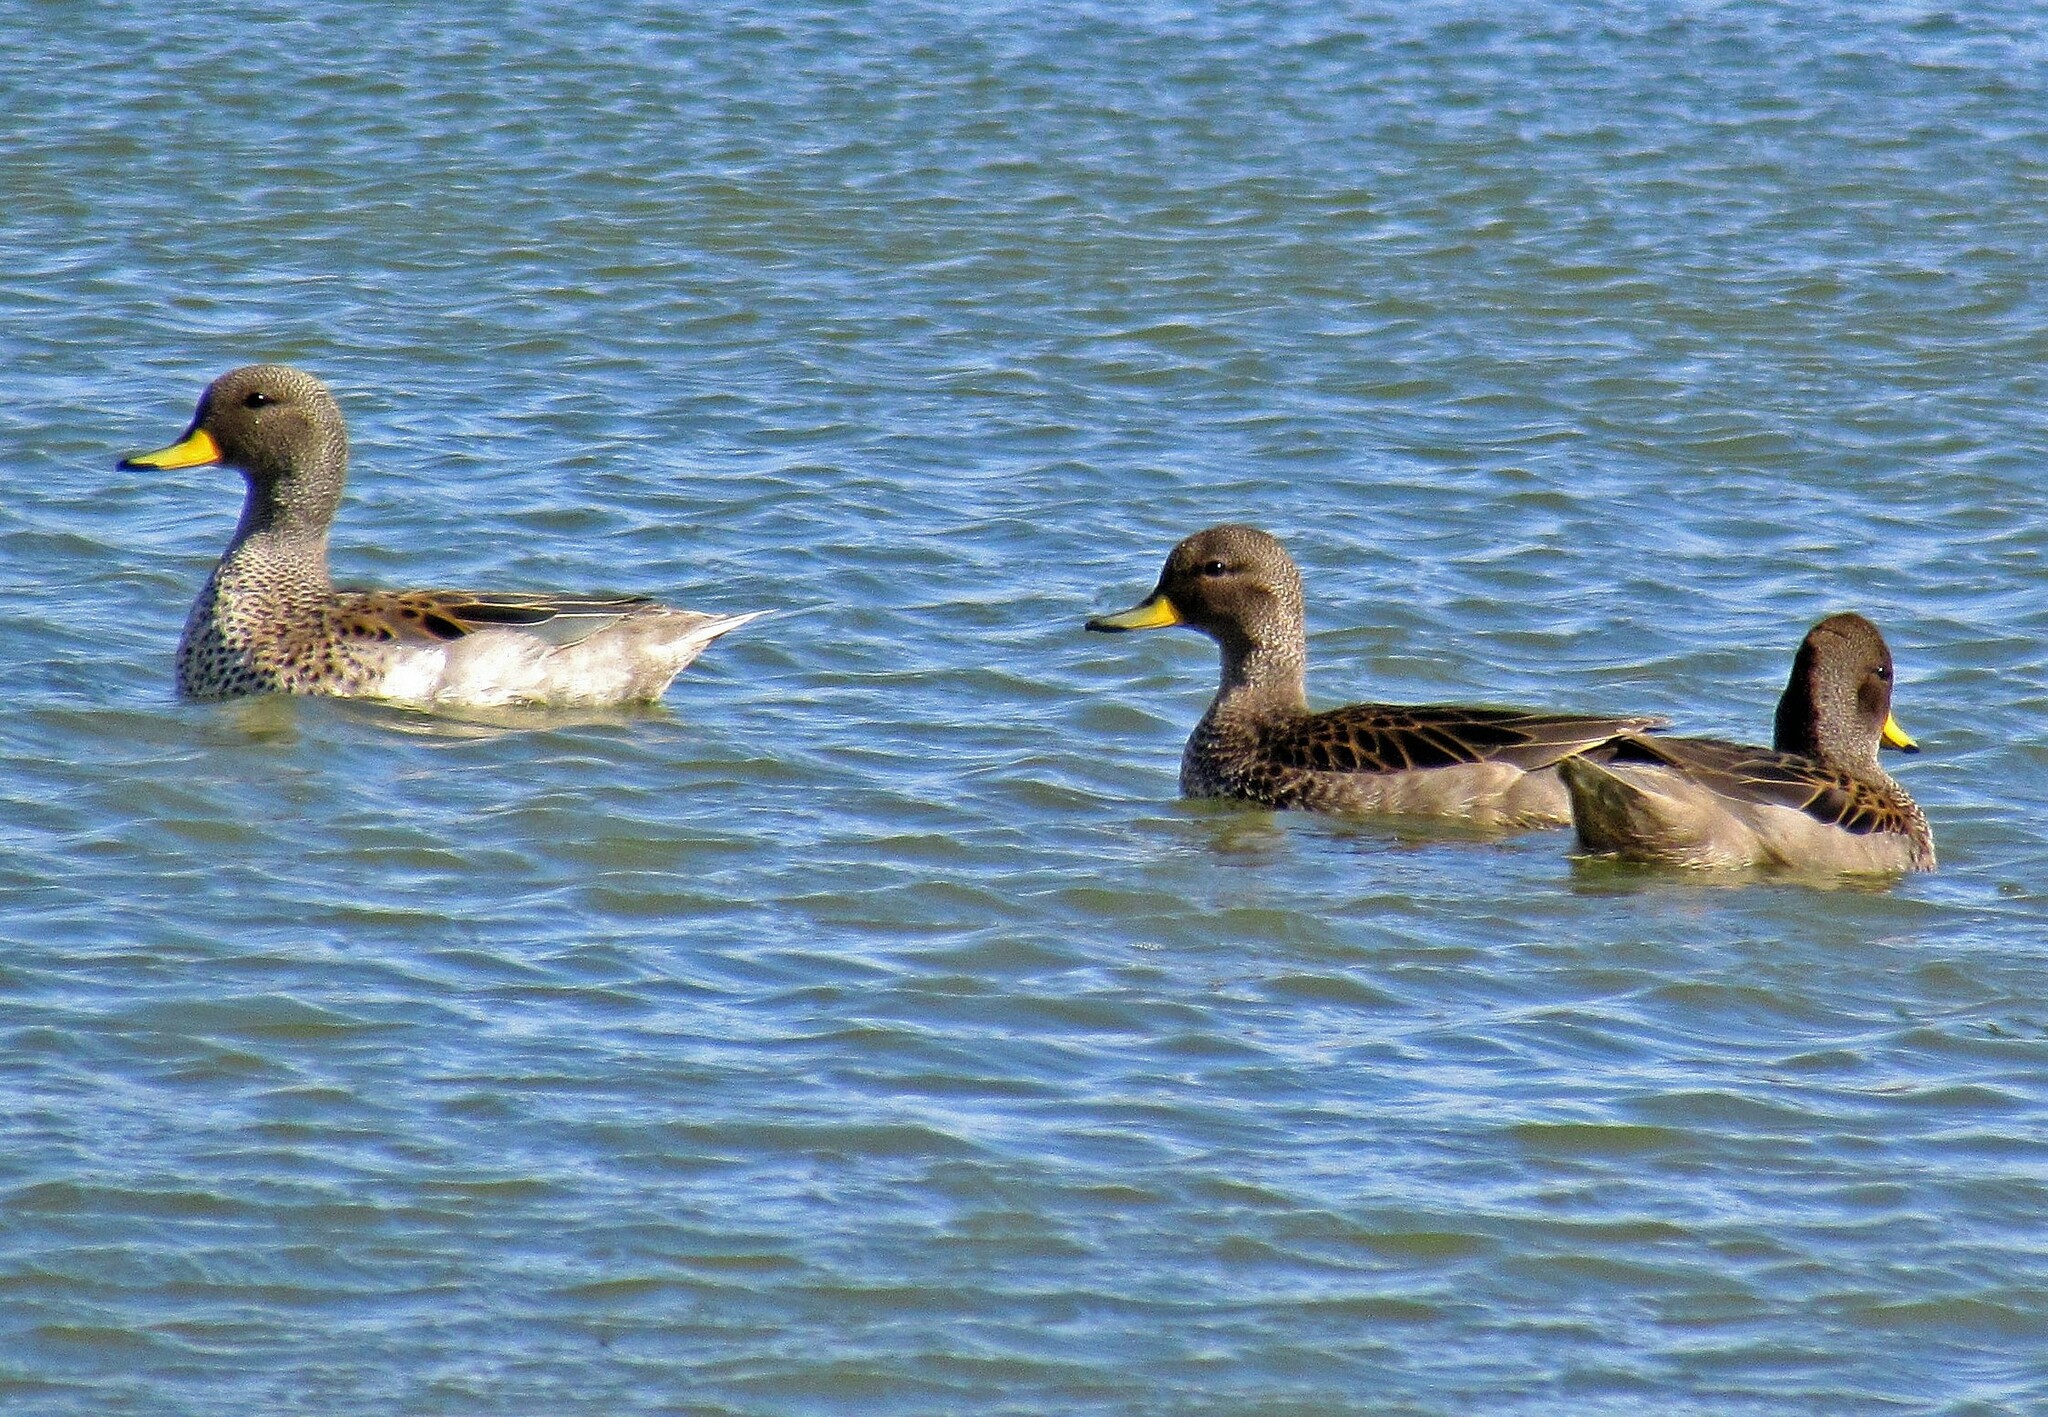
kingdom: Animalia
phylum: Chordata
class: Aves
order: Anseriformes
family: Anatidae
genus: Anas
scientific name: Anas flavirostris
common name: Yellow-billed teal
